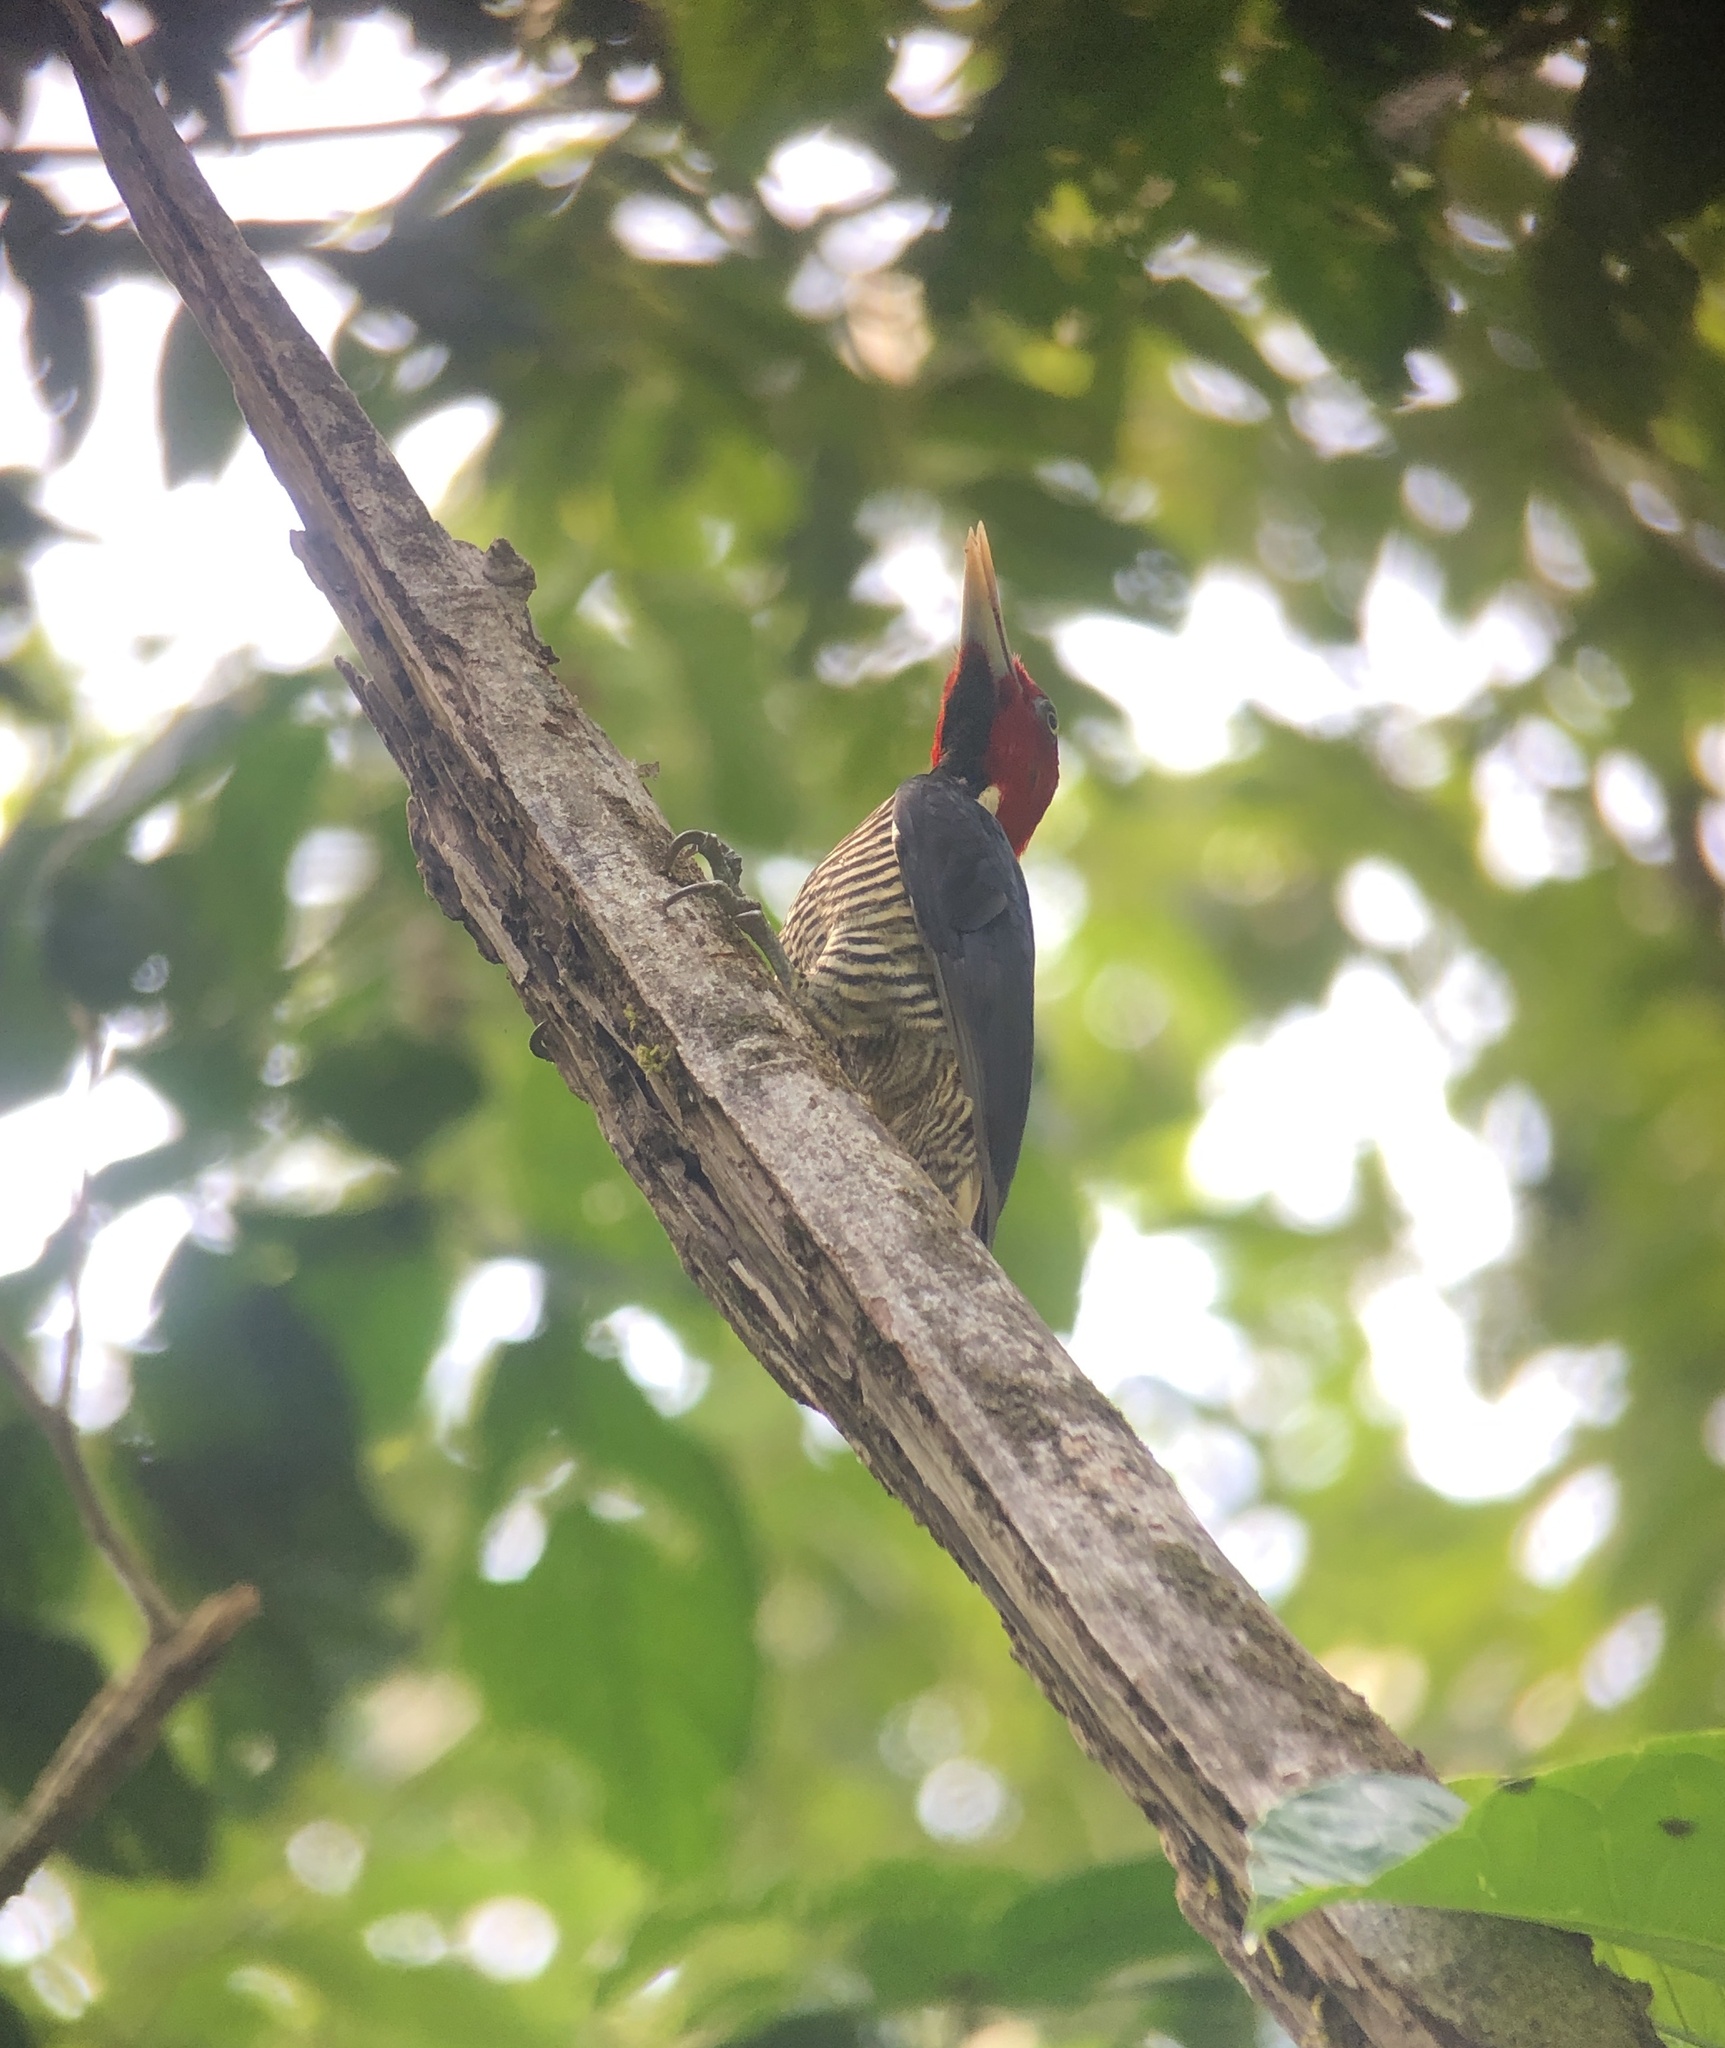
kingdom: Animalia
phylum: Chordata
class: Aves
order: Piciformes
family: Picidae
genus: Campephilus
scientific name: Campephilus guatemalensis
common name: Pale-billed woodpecker
